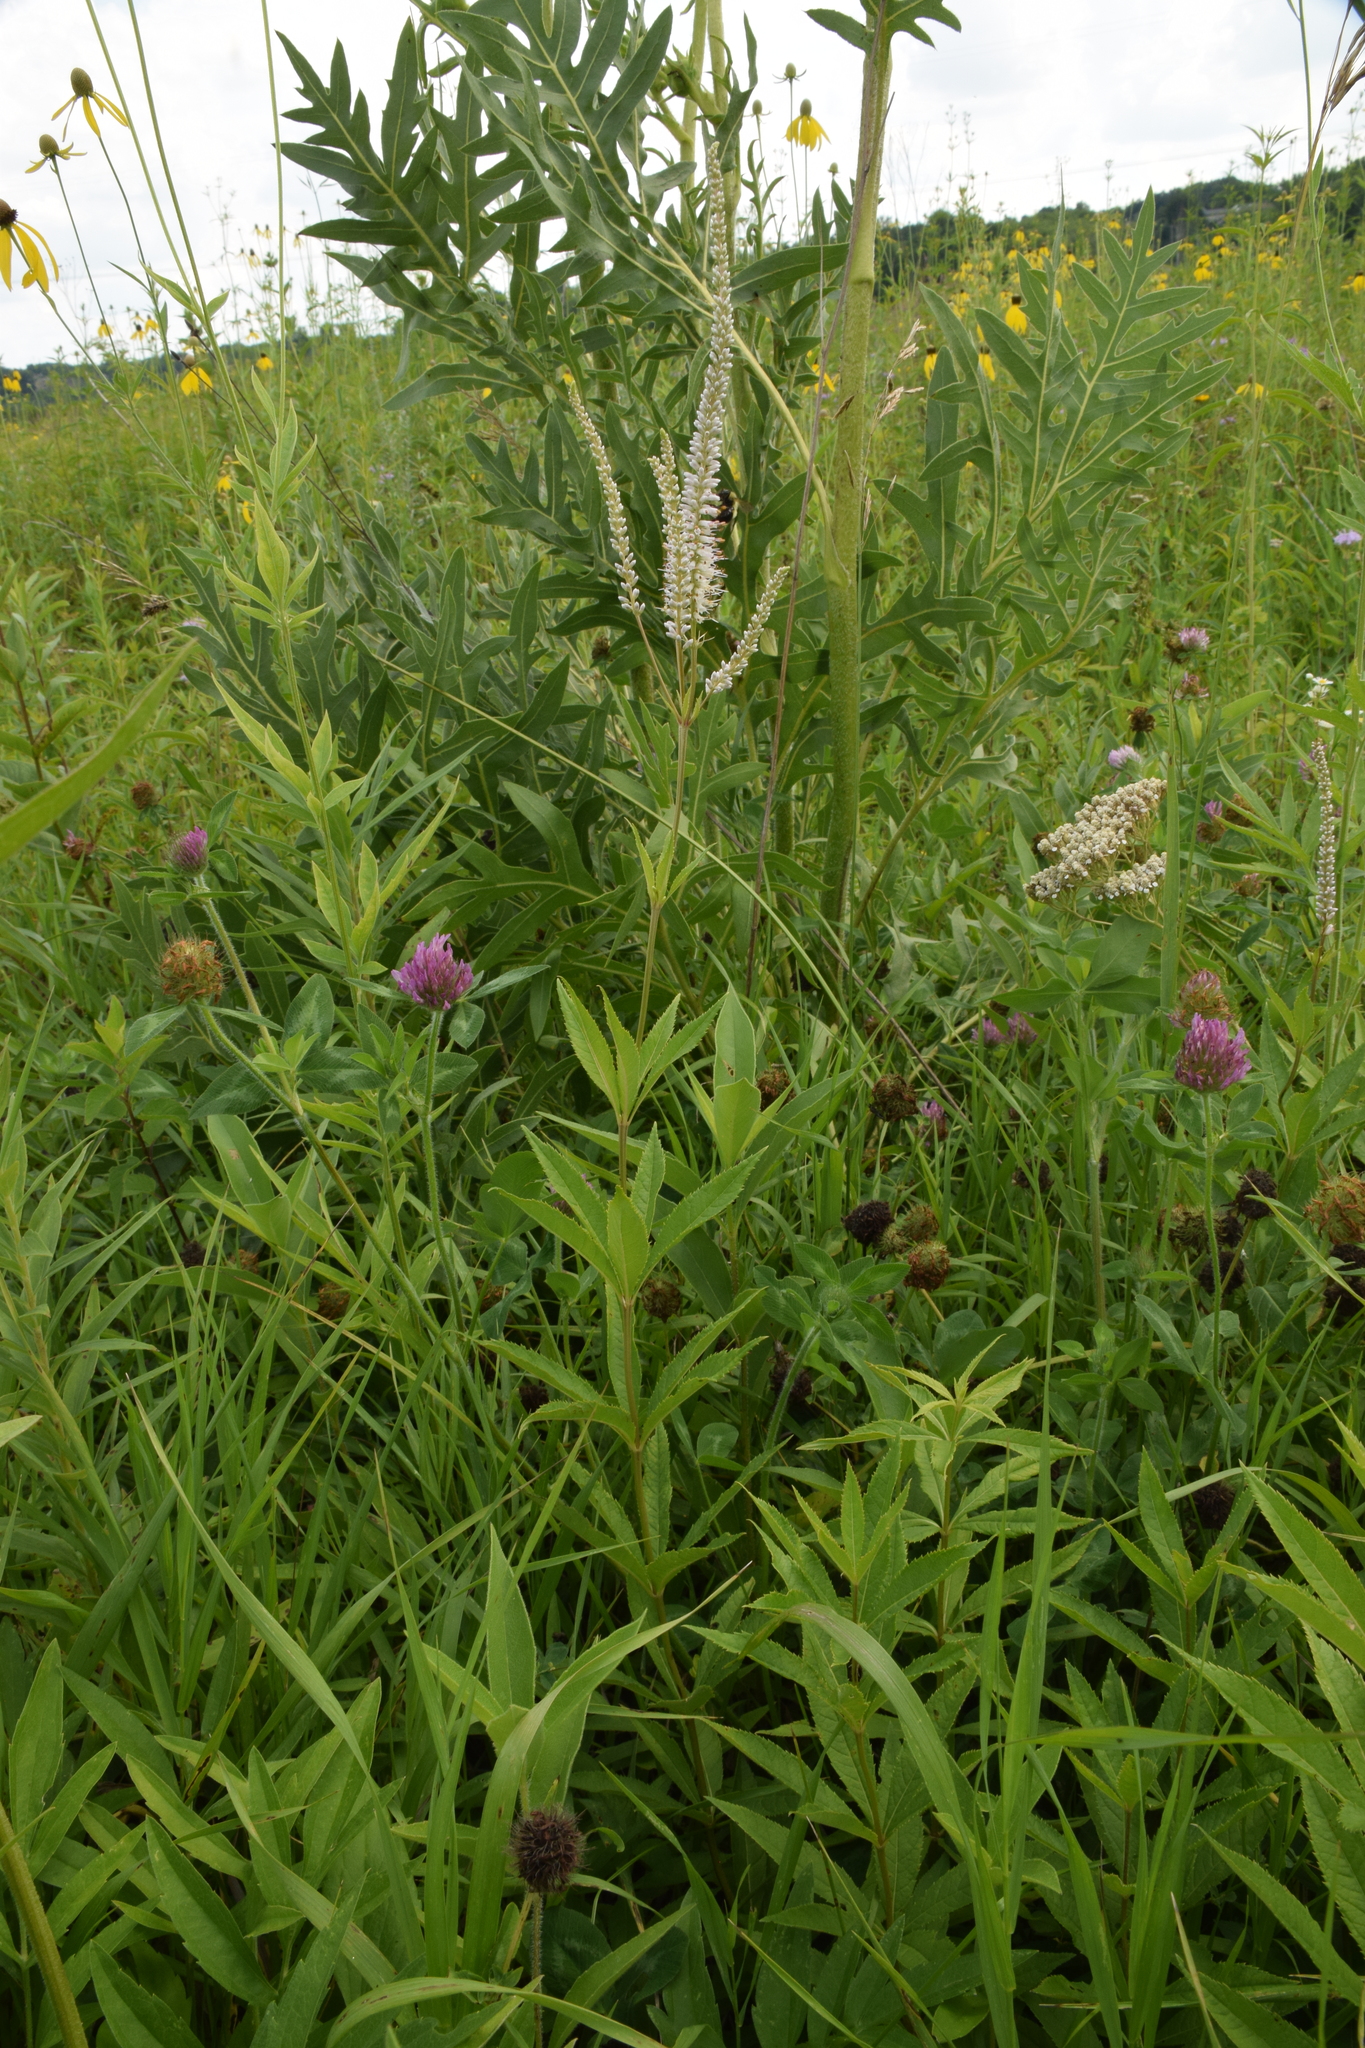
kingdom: Plantae
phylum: Tracheophyta
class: Magnoliopsida
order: Lamiales
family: Plantaginaceae
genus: Veronicastrum
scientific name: Veronicastrum virginicum
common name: Blackroot
